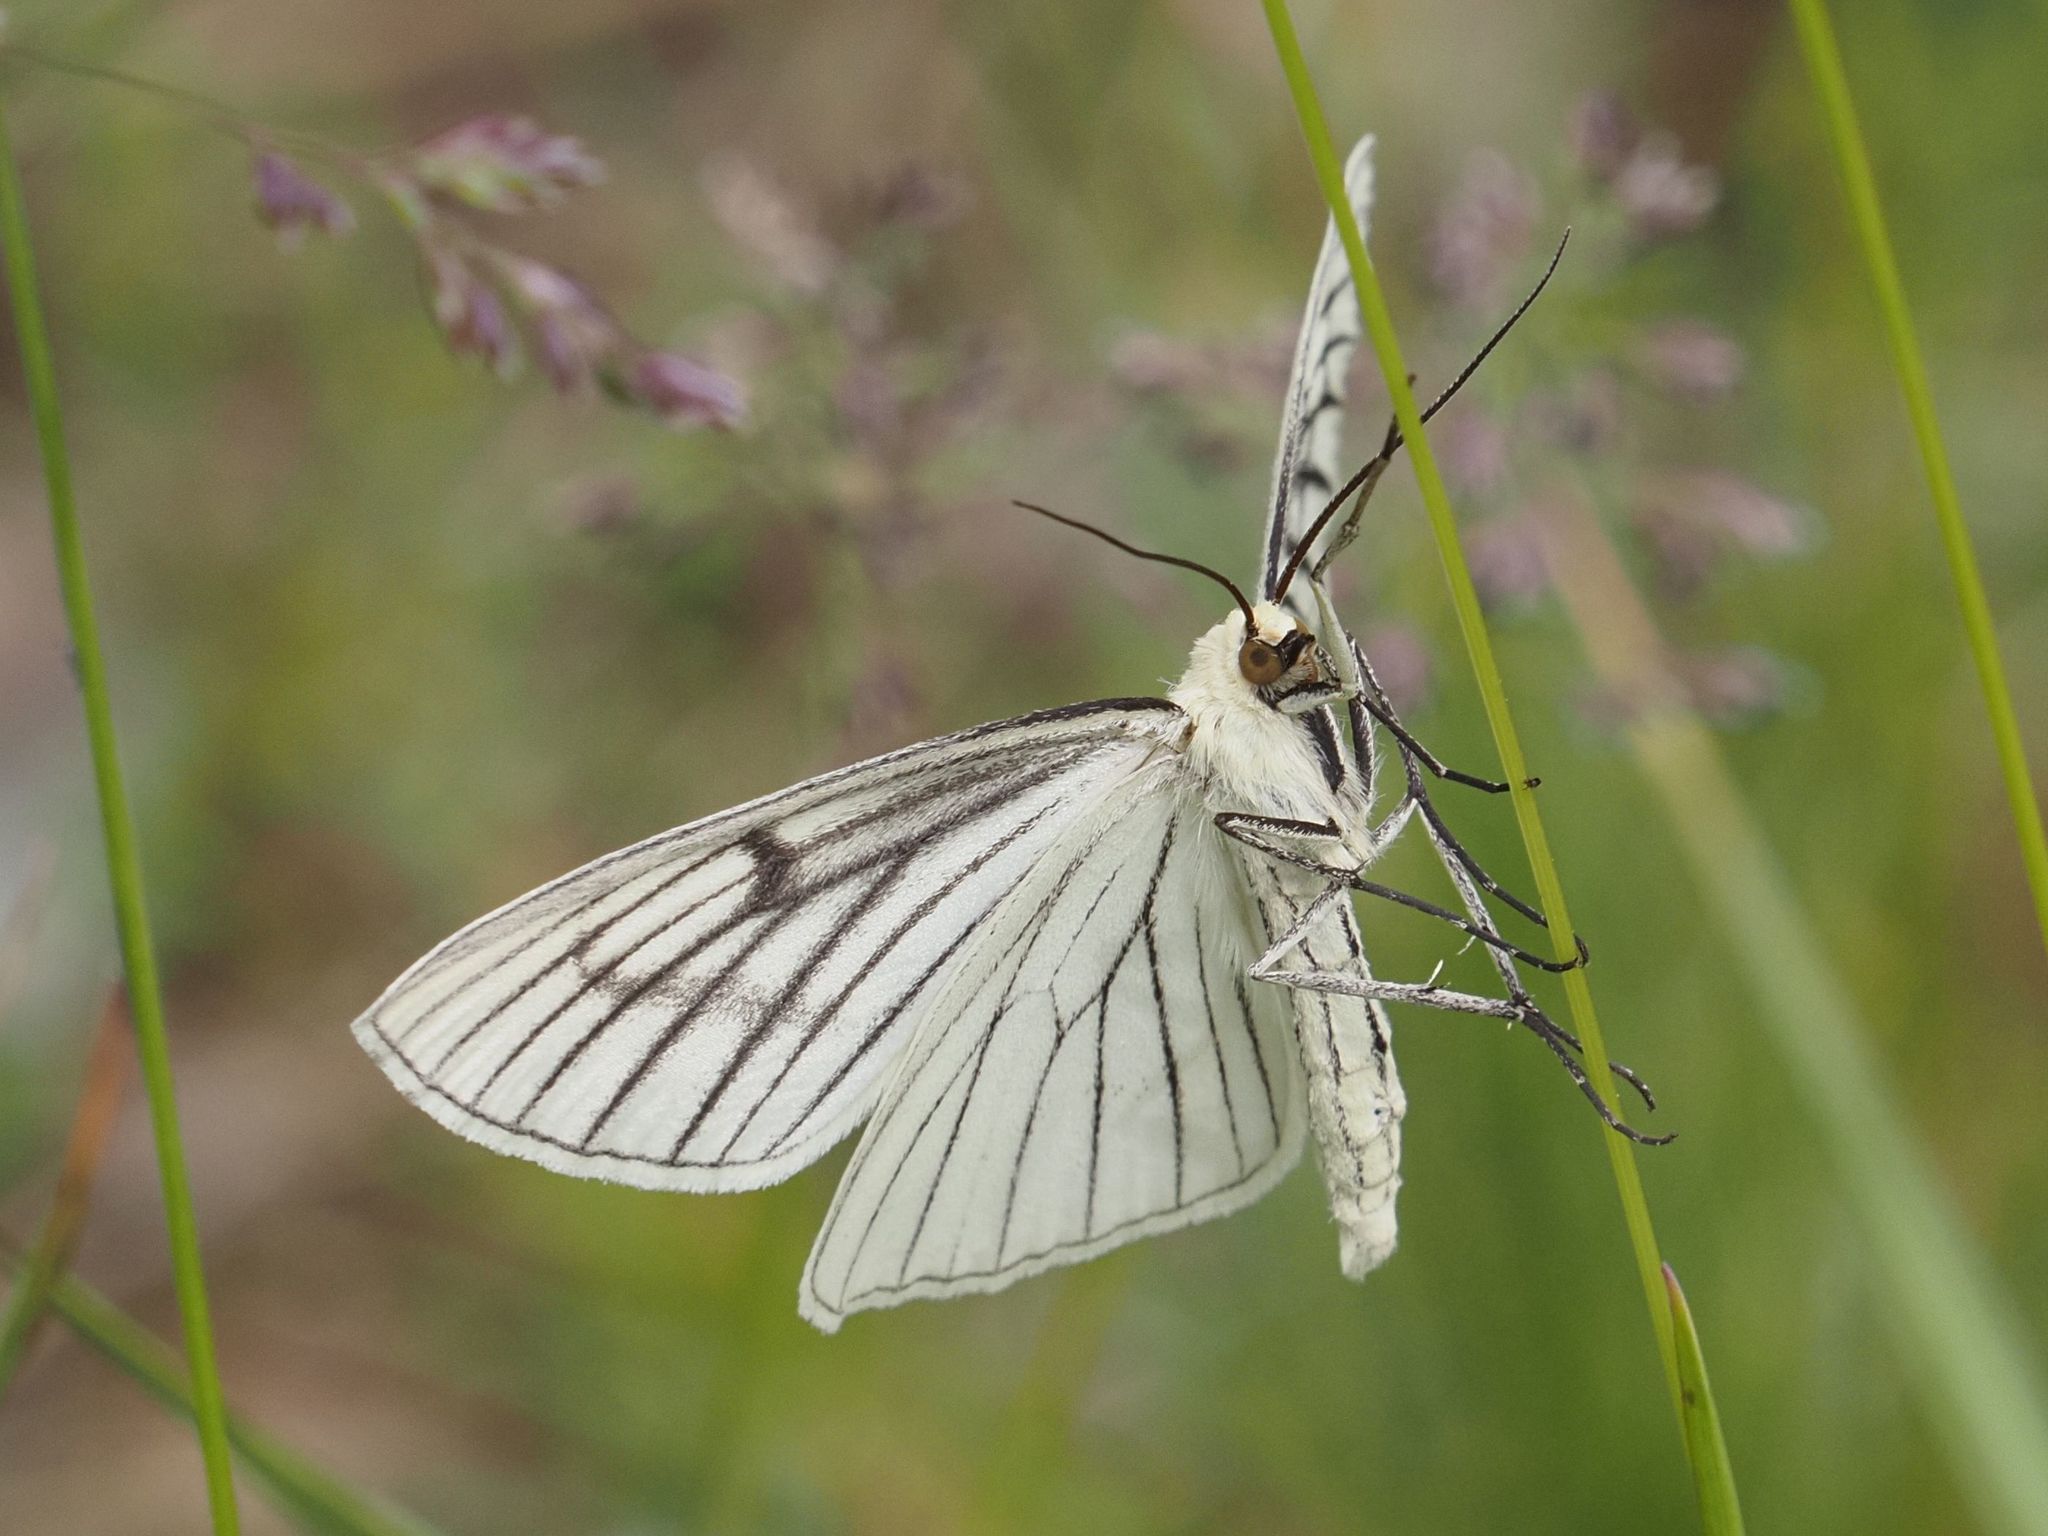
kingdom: Animalia
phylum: Arthropoda
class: Insecta
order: Lepidoptera
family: Geometridae
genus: Siona
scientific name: Siona lineata
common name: Black-veined moth
